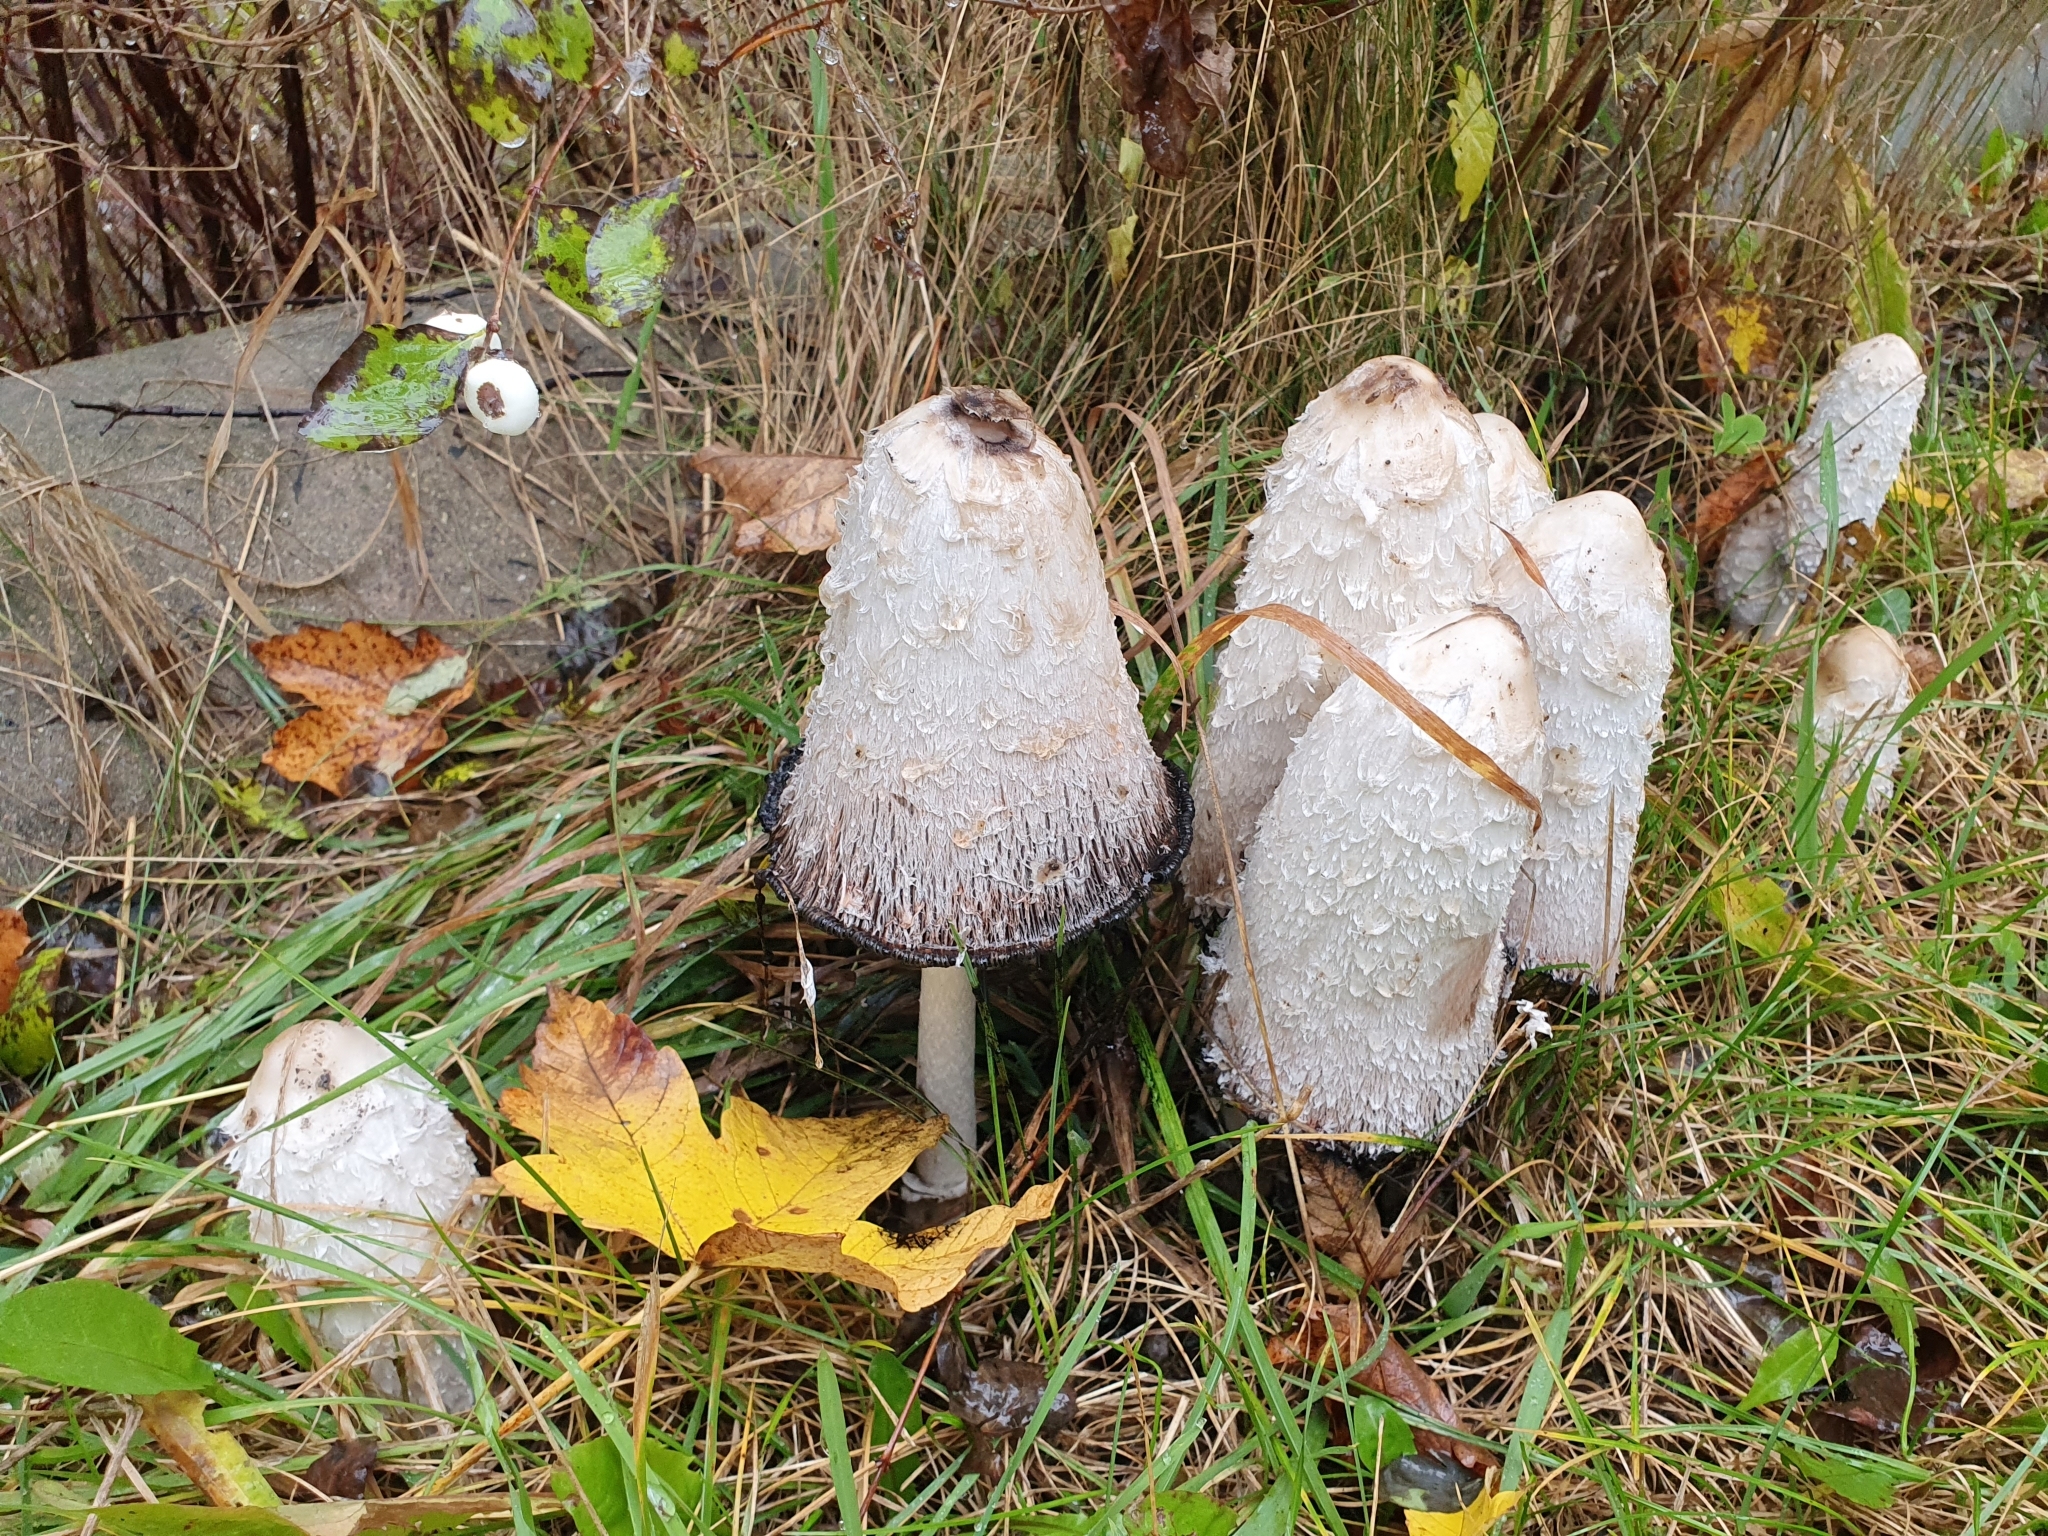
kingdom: Fungi
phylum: Basidiomycota
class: Agaricomycetes
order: Agaricales
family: Agaricaceae
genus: Coprinus
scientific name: Coprinus comatus
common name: Lawyer's wig
